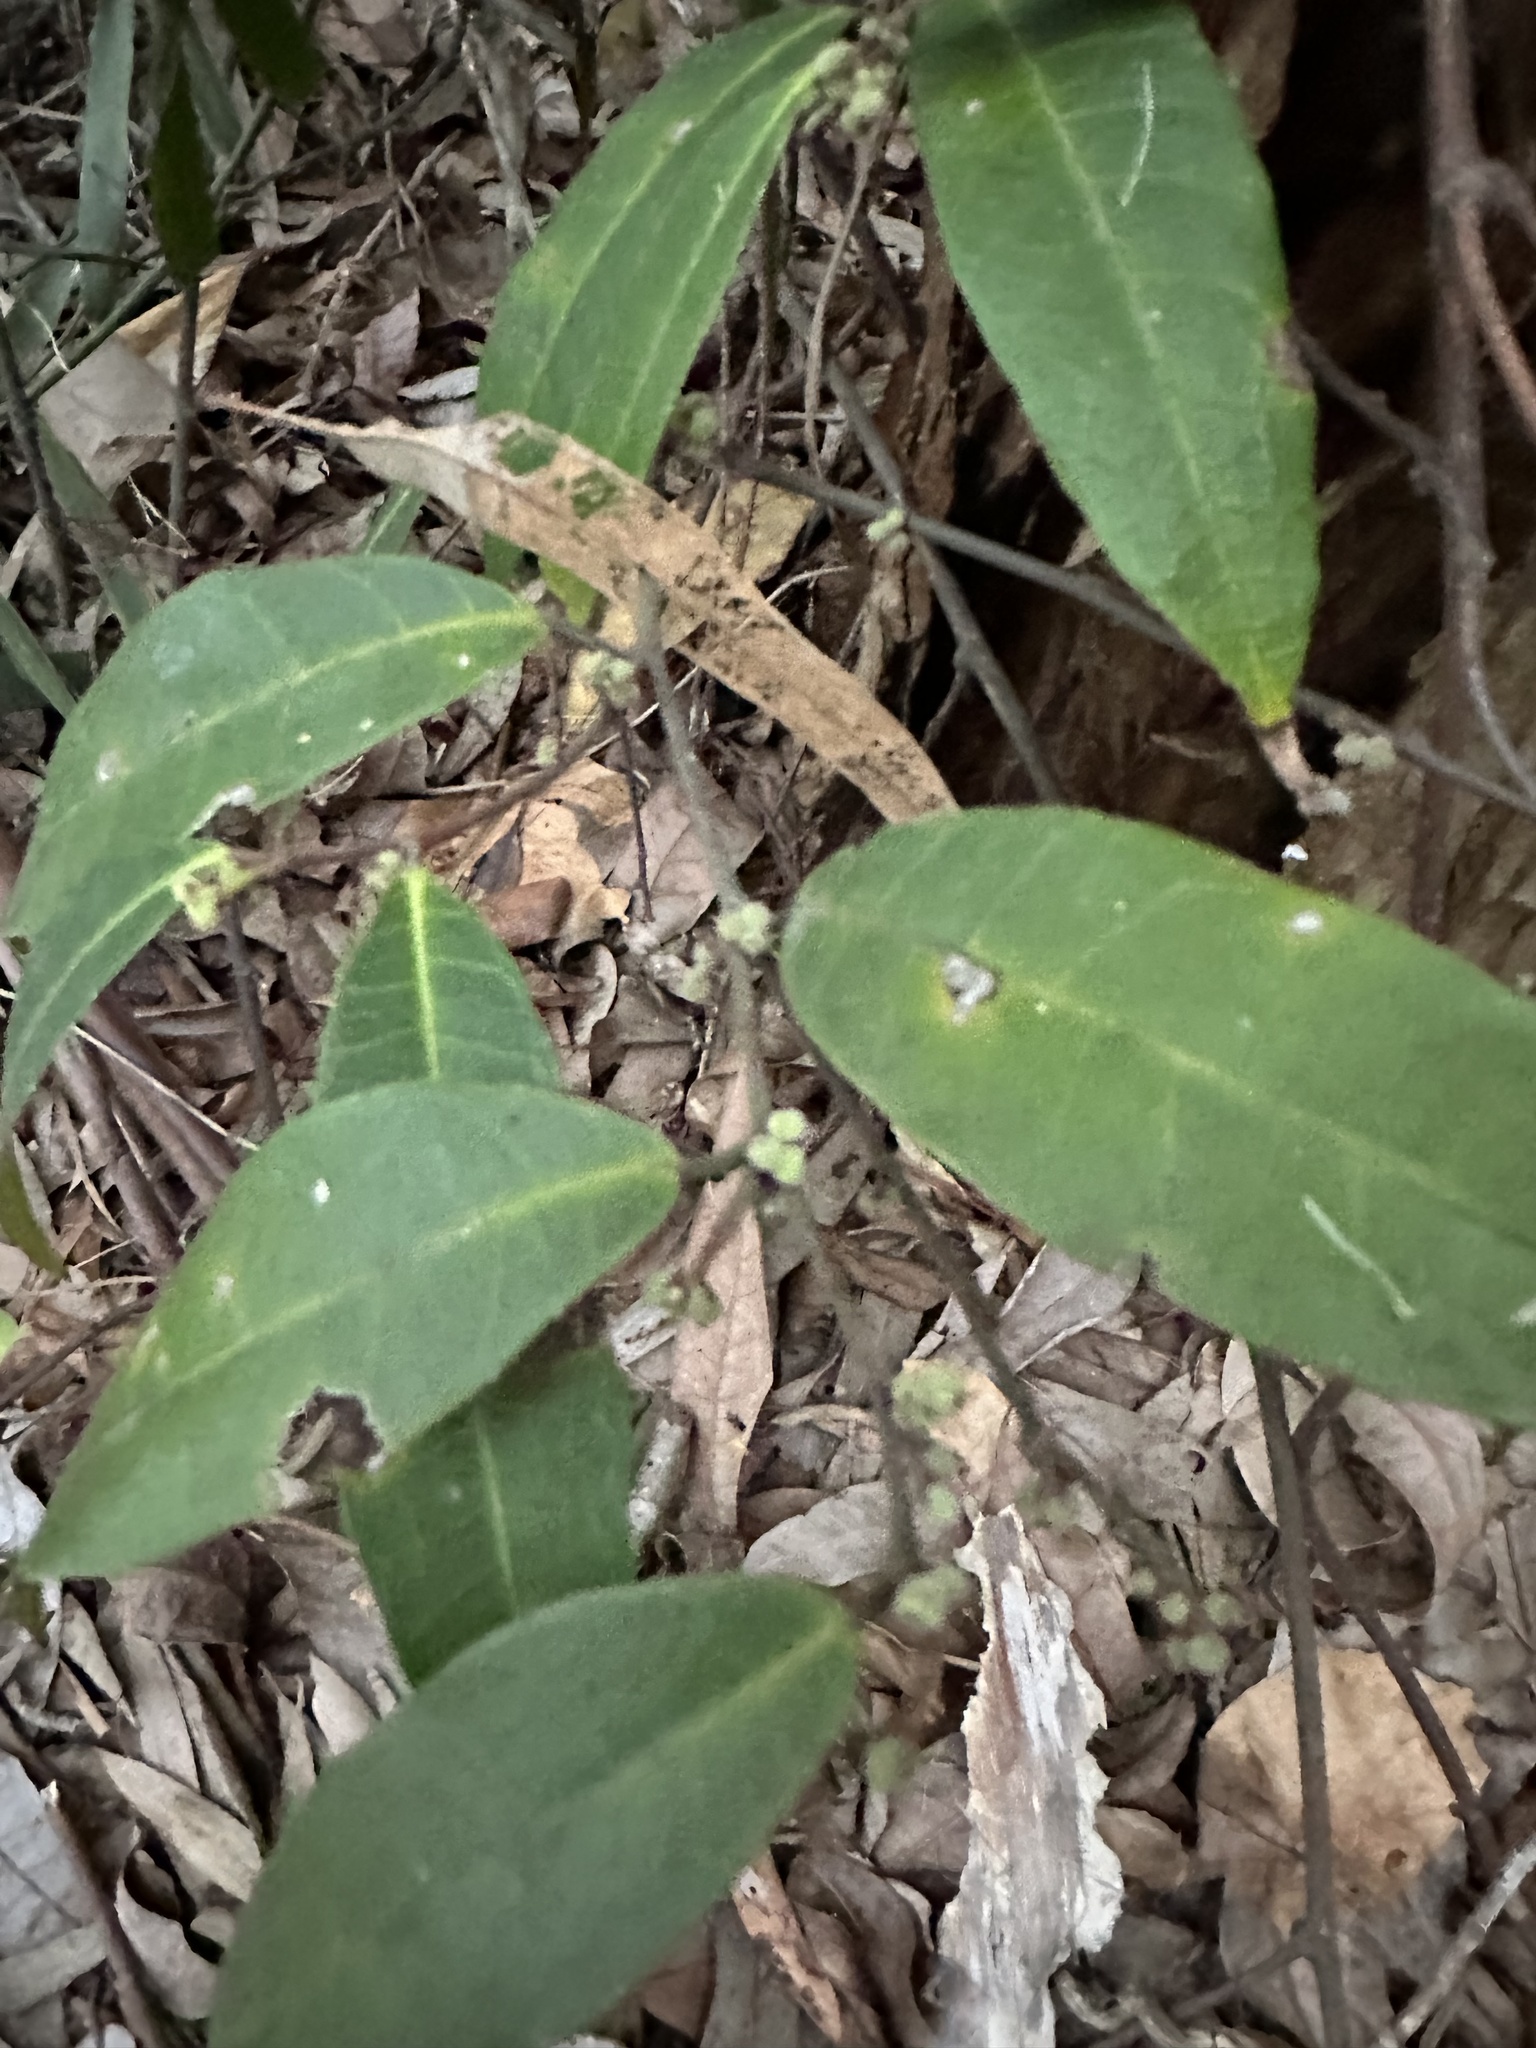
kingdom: Plantae
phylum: Tracheophyta
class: Magnoliopsida
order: Rosales
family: Moraceae
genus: Malaisia
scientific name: Malaisia scandens
